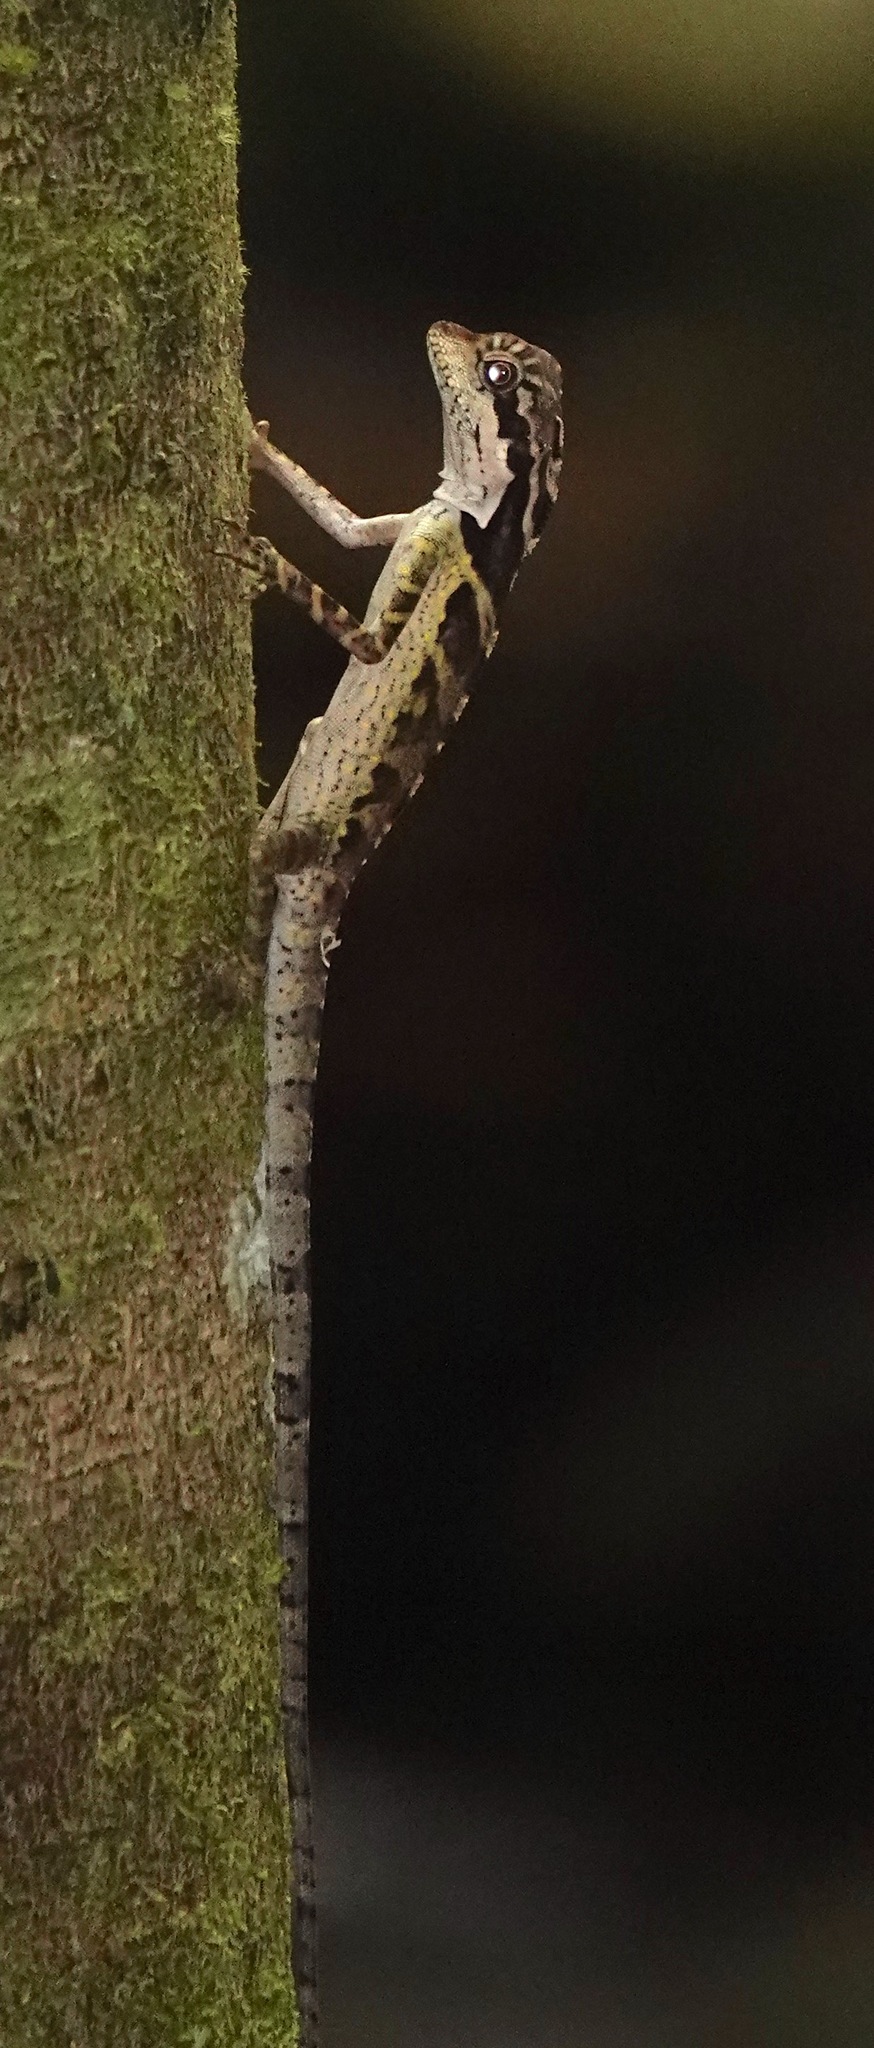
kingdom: Animalia
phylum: Chordata
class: Squamata
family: Agamidae
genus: Gonocephalus
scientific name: Gonocephalus grandis
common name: Giant forest dragon
